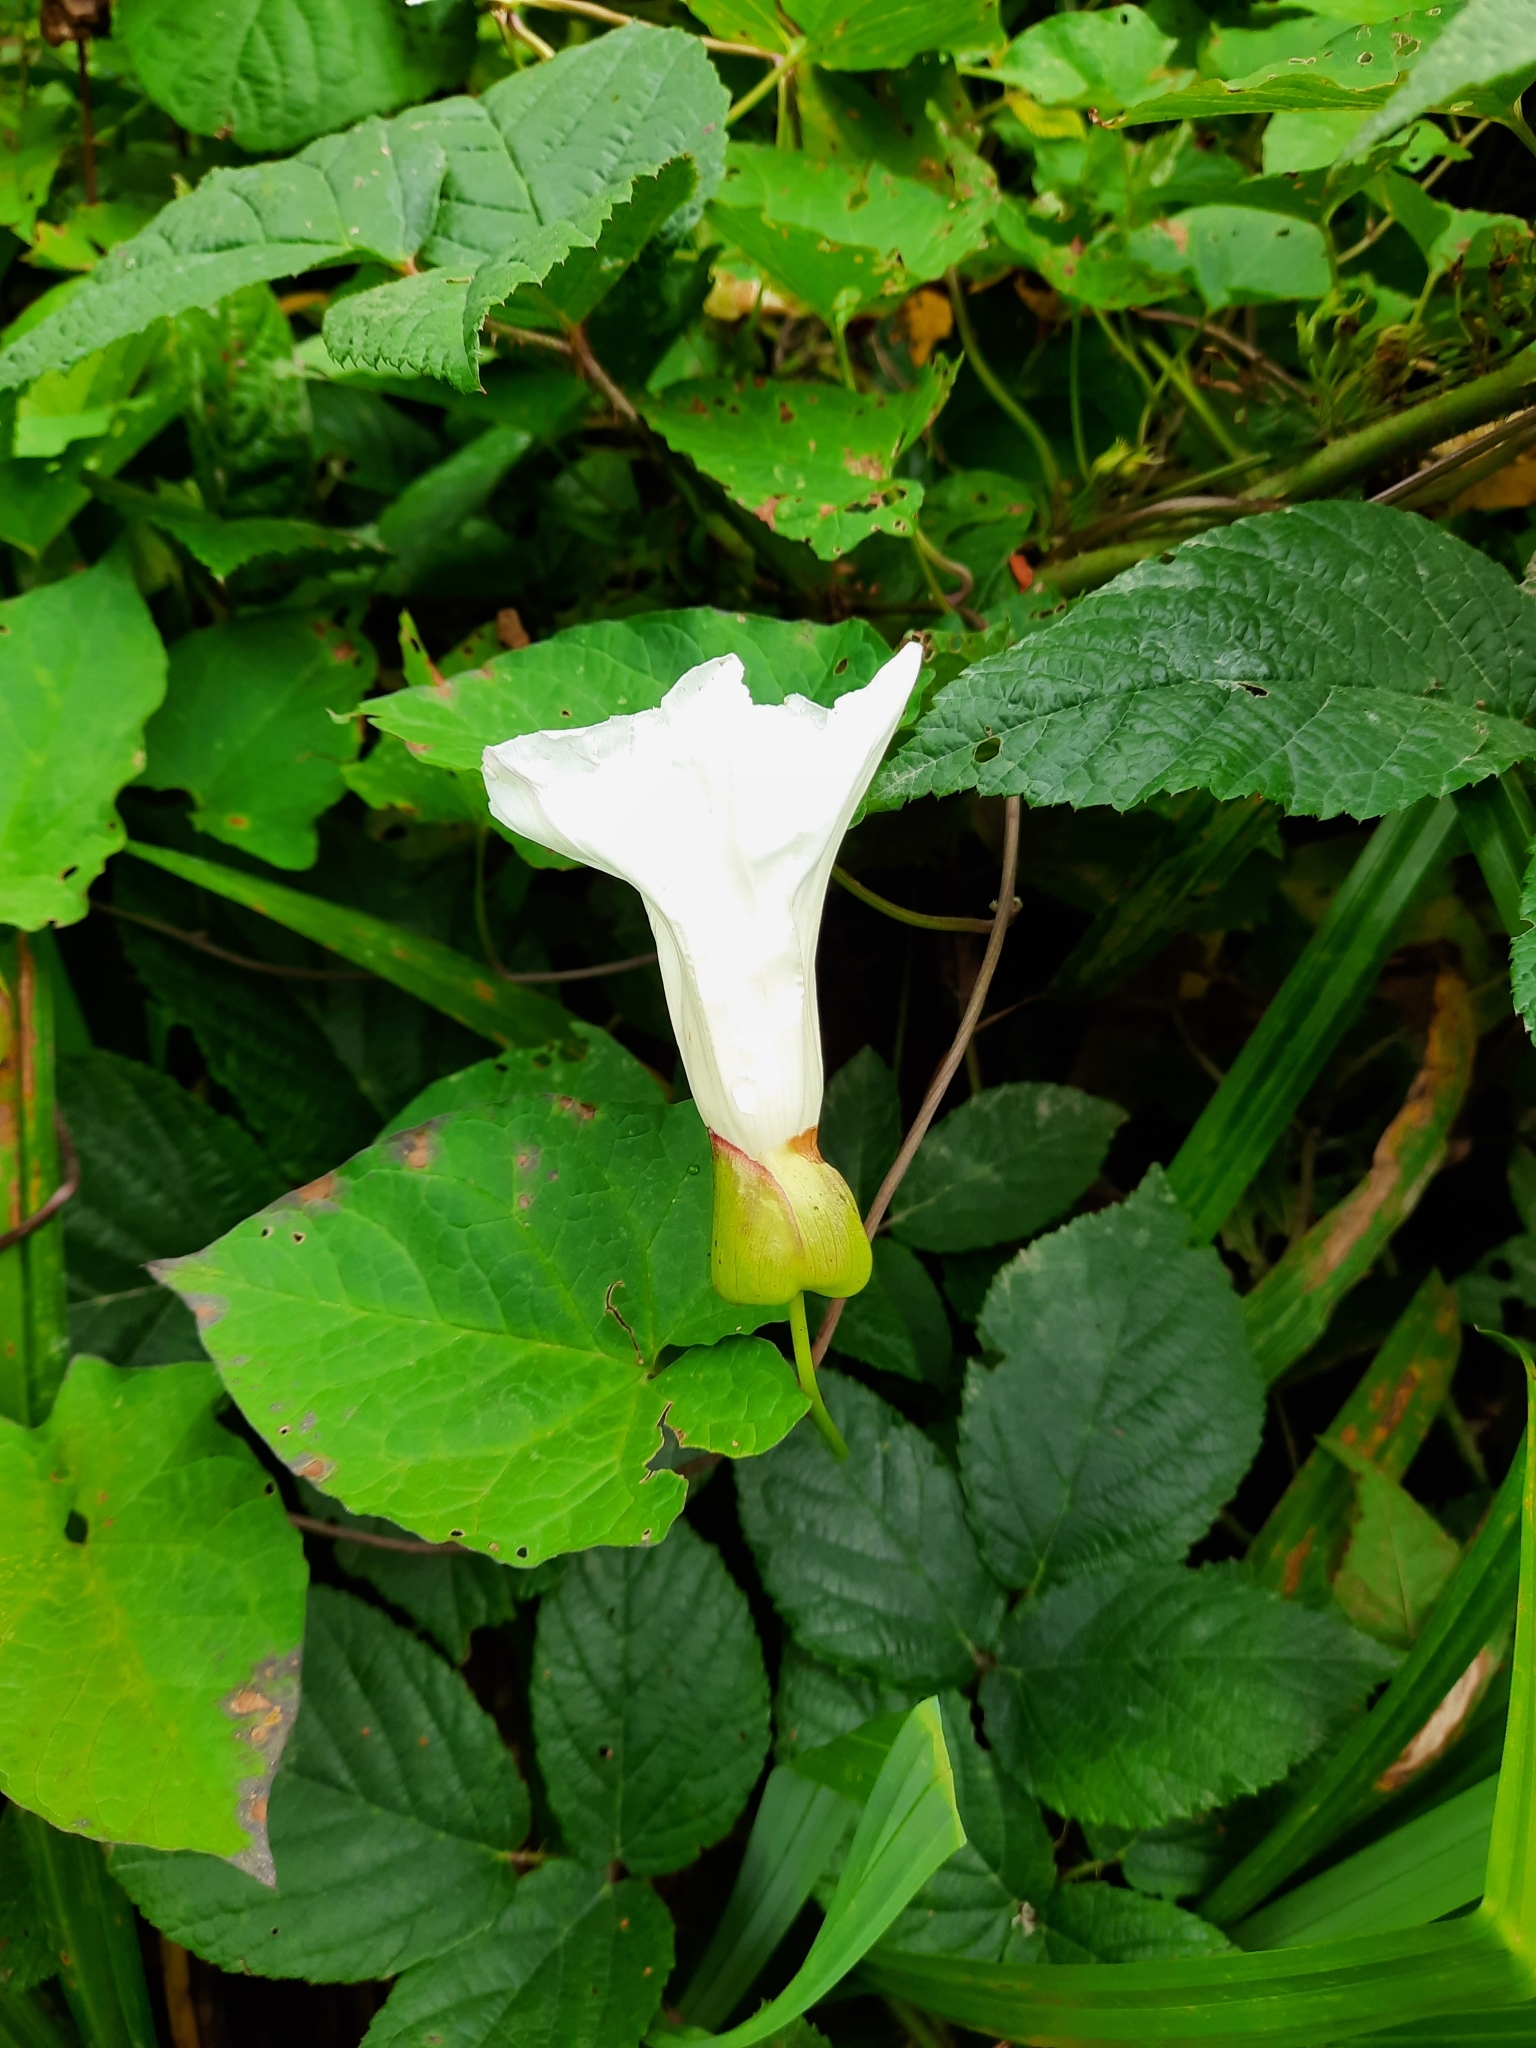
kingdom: Plantae
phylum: Tracheophyta
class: Magnoliopsida
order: Solanales
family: Convolvulaceae
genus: Calystegia
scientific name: Calystegia silvatica
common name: Large bindweed
